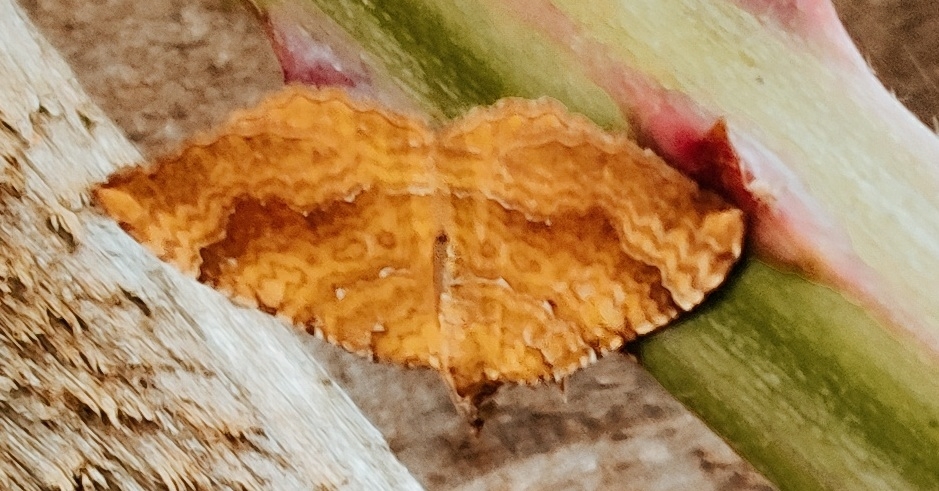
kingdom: Animalia
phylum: Arthropoda
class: Insecta
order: Lepidoptera
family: Geometridae
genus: Camptogramma
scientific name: Camptogramma bilineata
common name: Yellow shell
